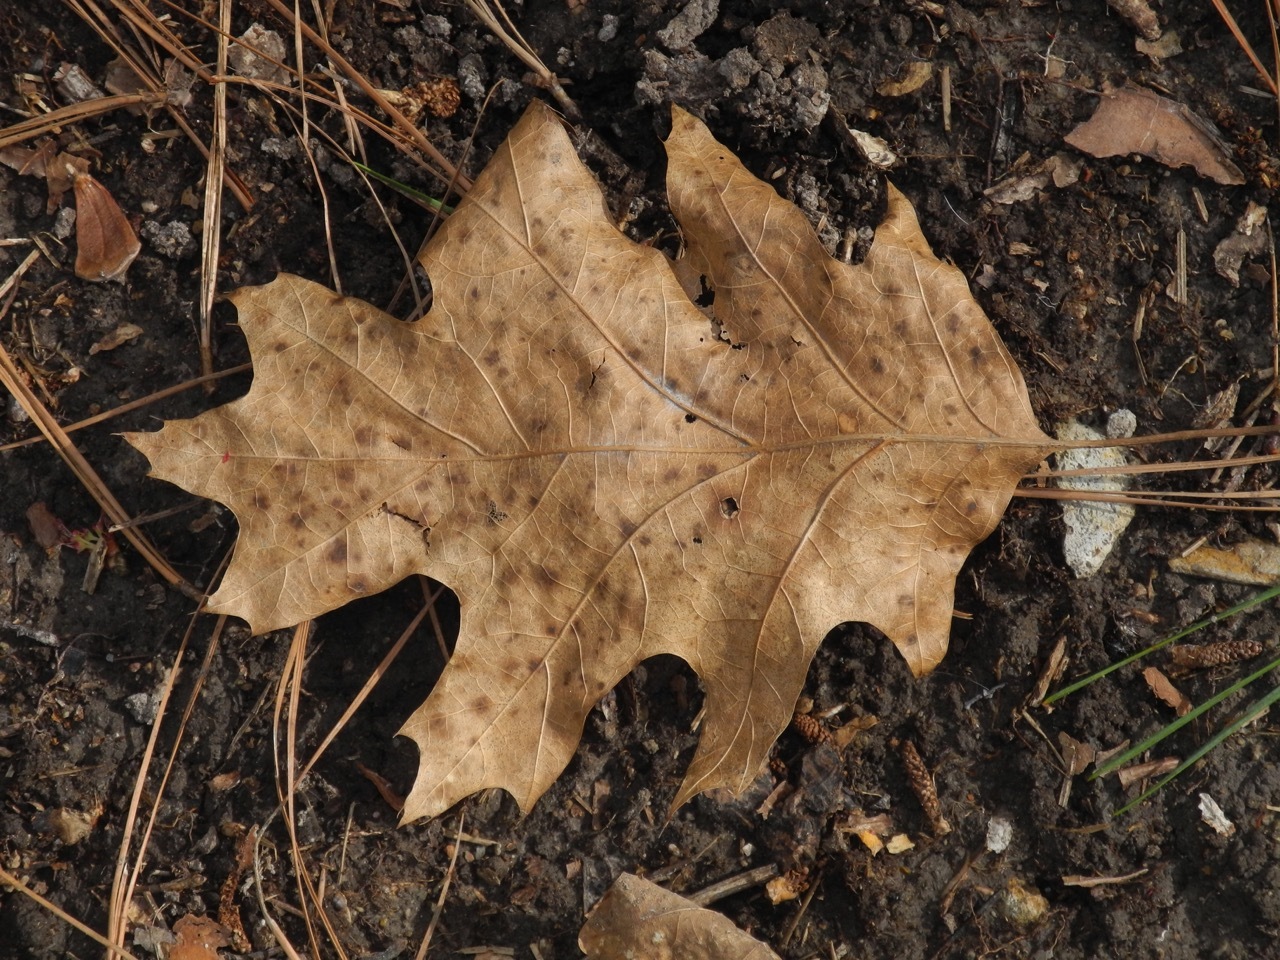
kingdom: Plantae
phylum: Tracheophyta
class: Magnoliopsida
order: Fagales
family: Fagaceae
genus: Quercus
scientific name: Quercus rubra
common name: Red oak
